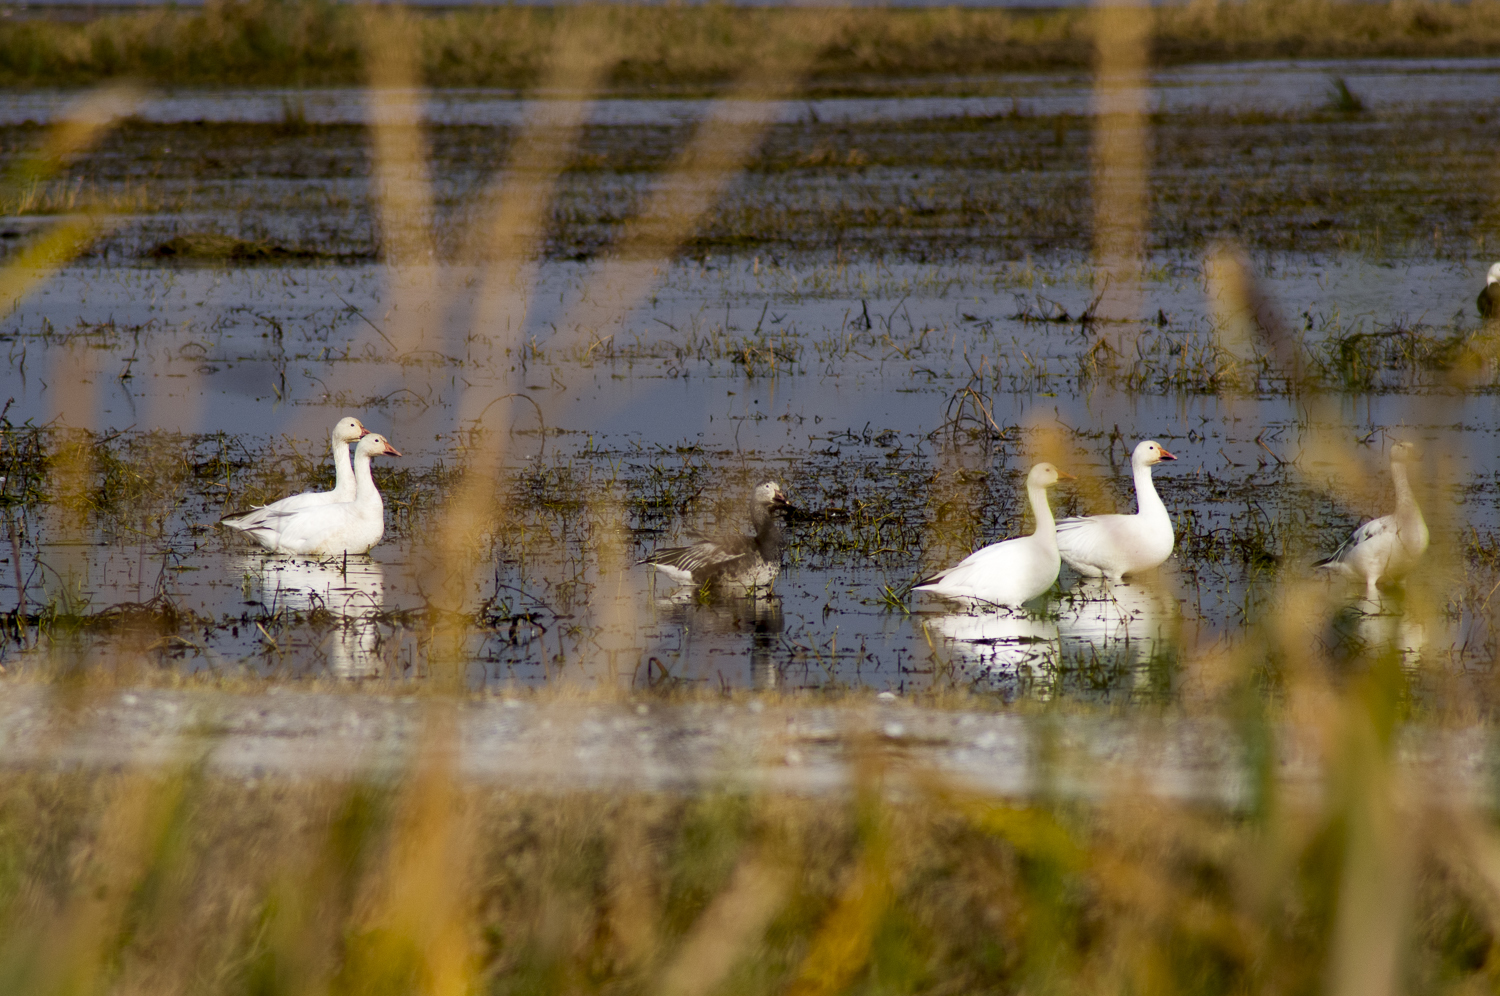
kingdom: Animalia
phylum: Chordata
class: Aves
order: Anseriformes
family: Anatidae
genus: Anser
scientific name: Anser caerulescens
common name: Snow goose
